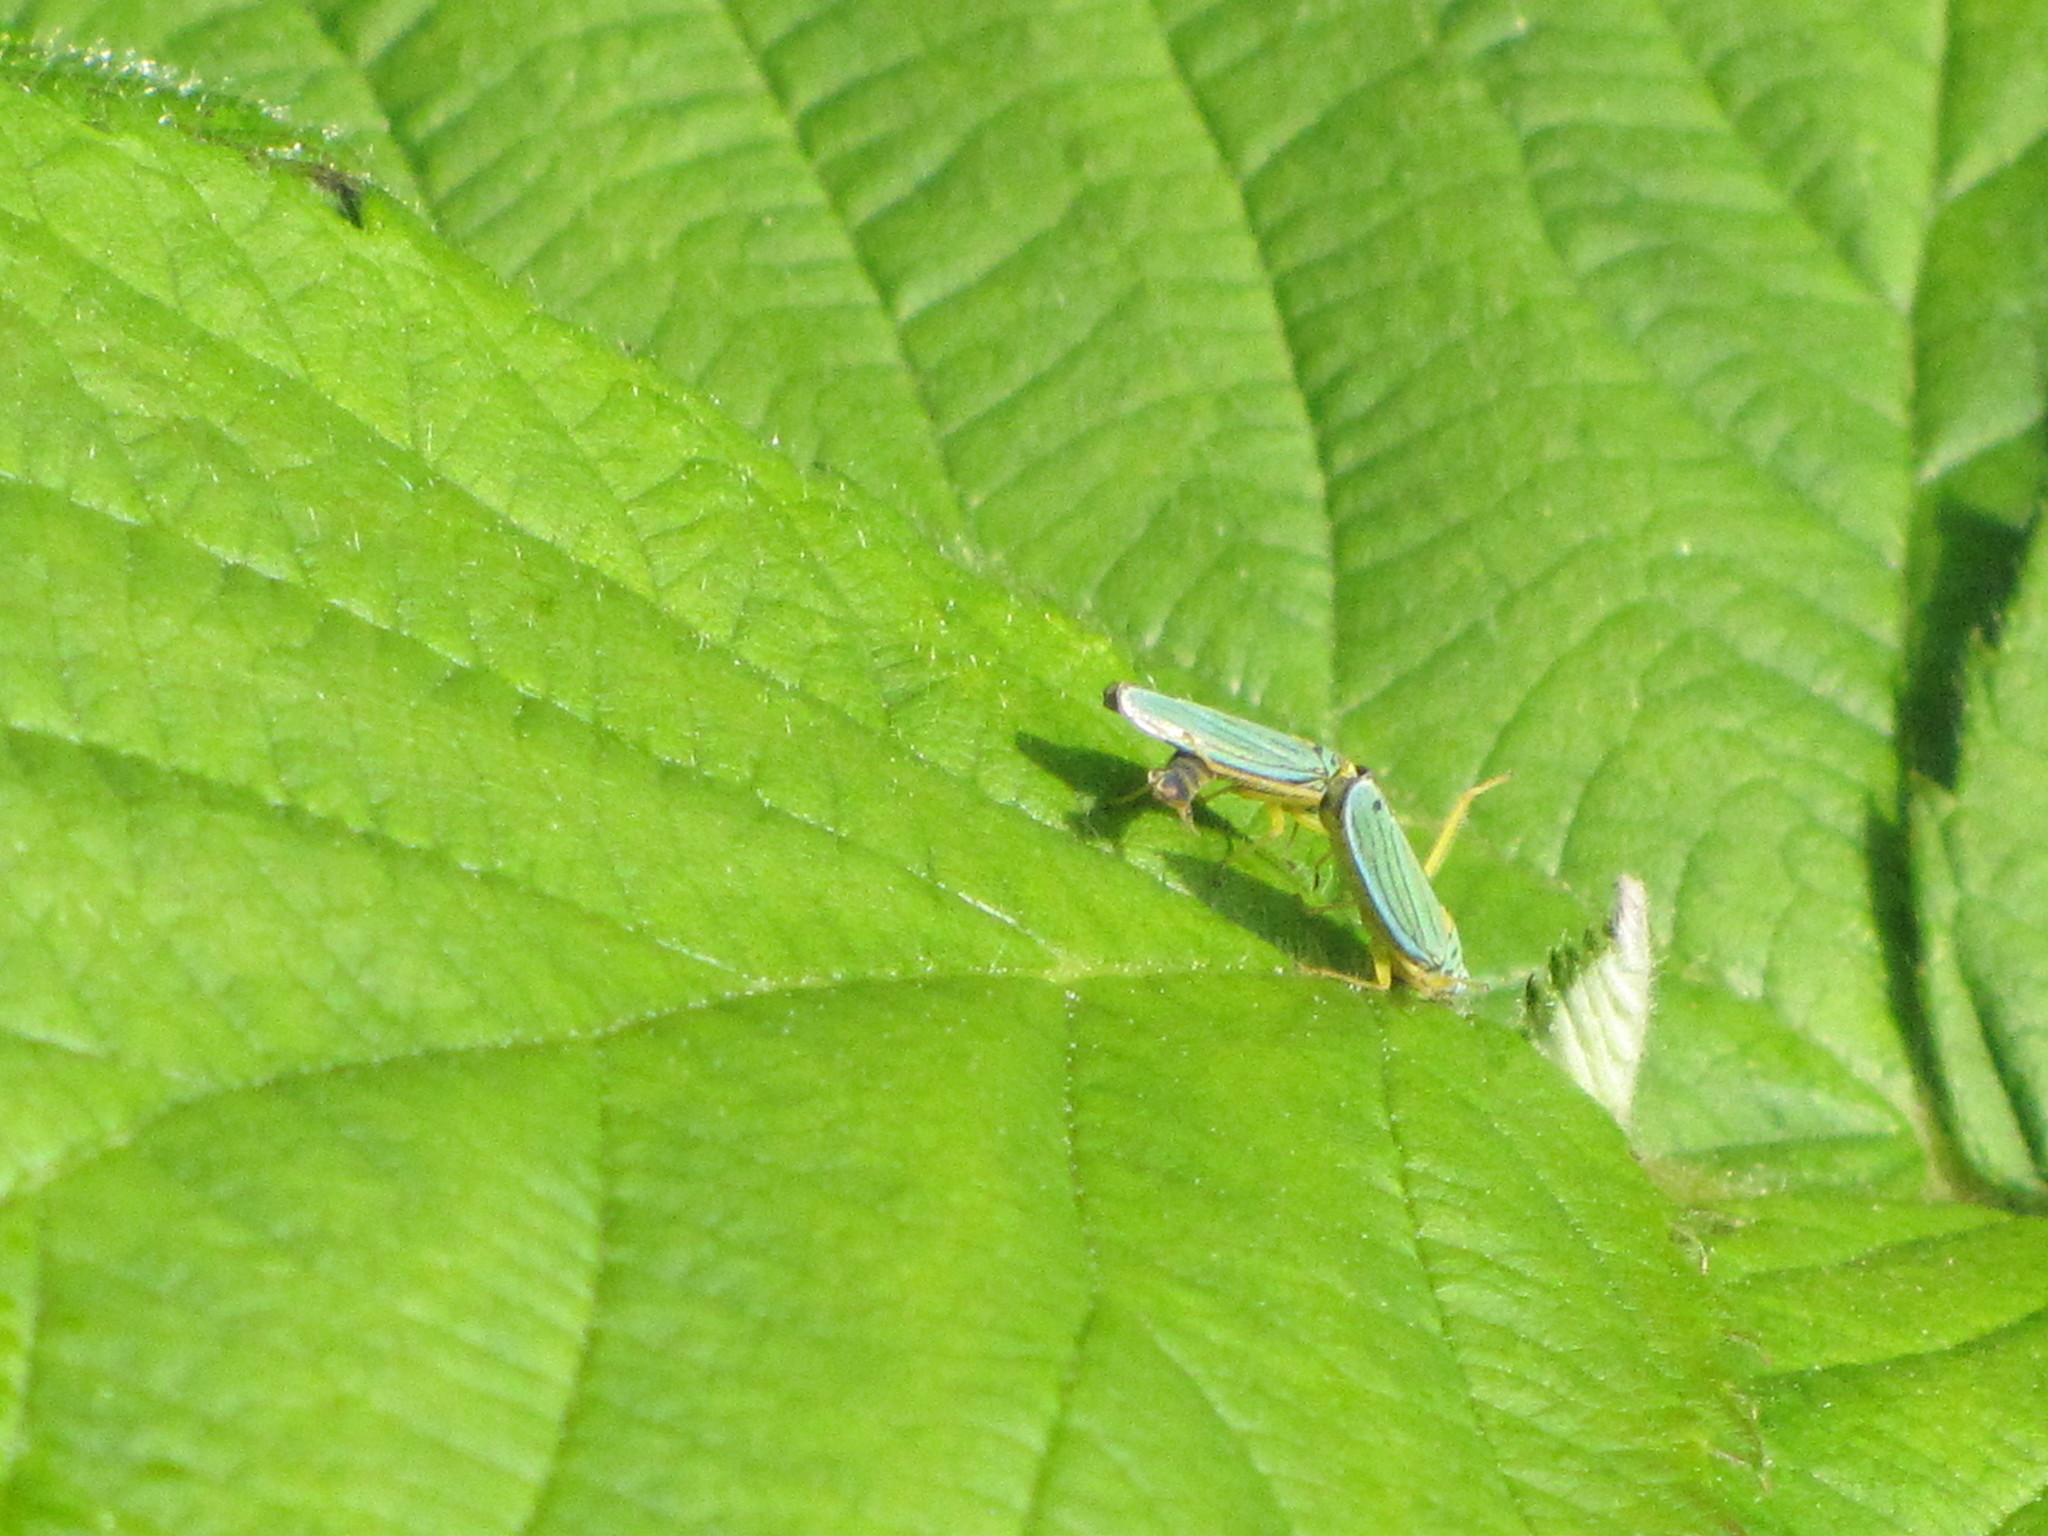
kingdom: Animalia
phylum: Arthropoda
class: Insecta
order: Hemiptera
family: Cicadellidae
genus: Graphocephala
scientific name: Graphocephala atropunctata
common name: Blue-green sharpshooter
